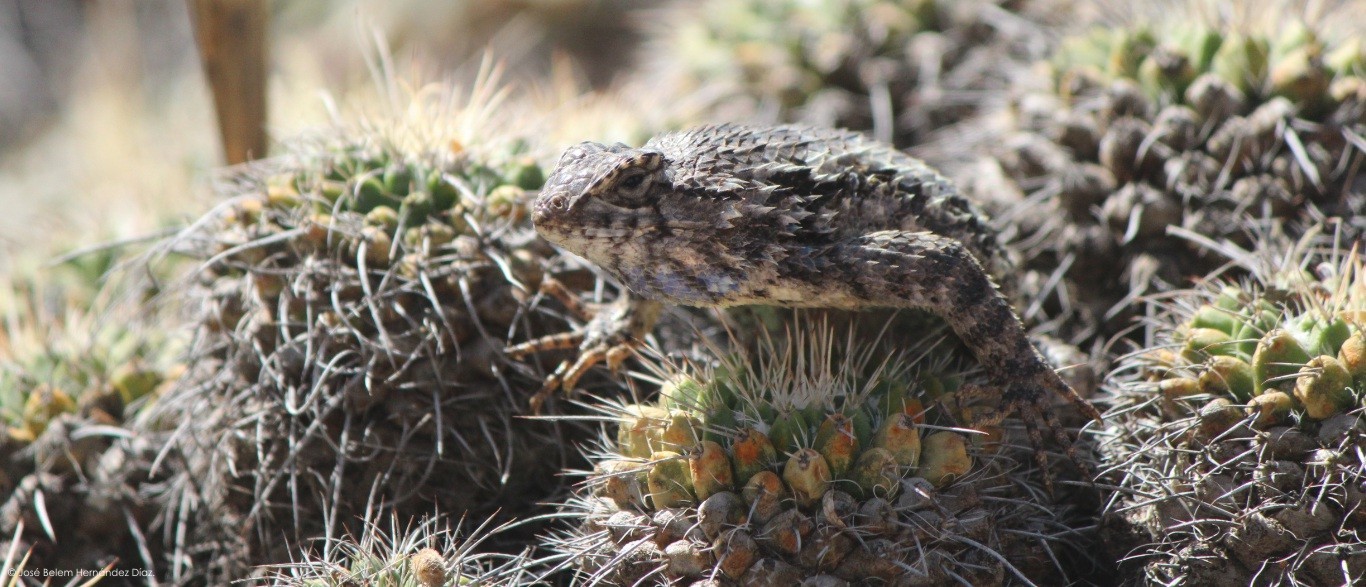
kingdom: Animalia
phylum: Chordata
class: Squamata
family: Phrynosomatidae
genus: Sceloporus
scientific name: Sceloporus spinosus
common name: Blue-spotted spiny lizard [caeruleopunctatus]
